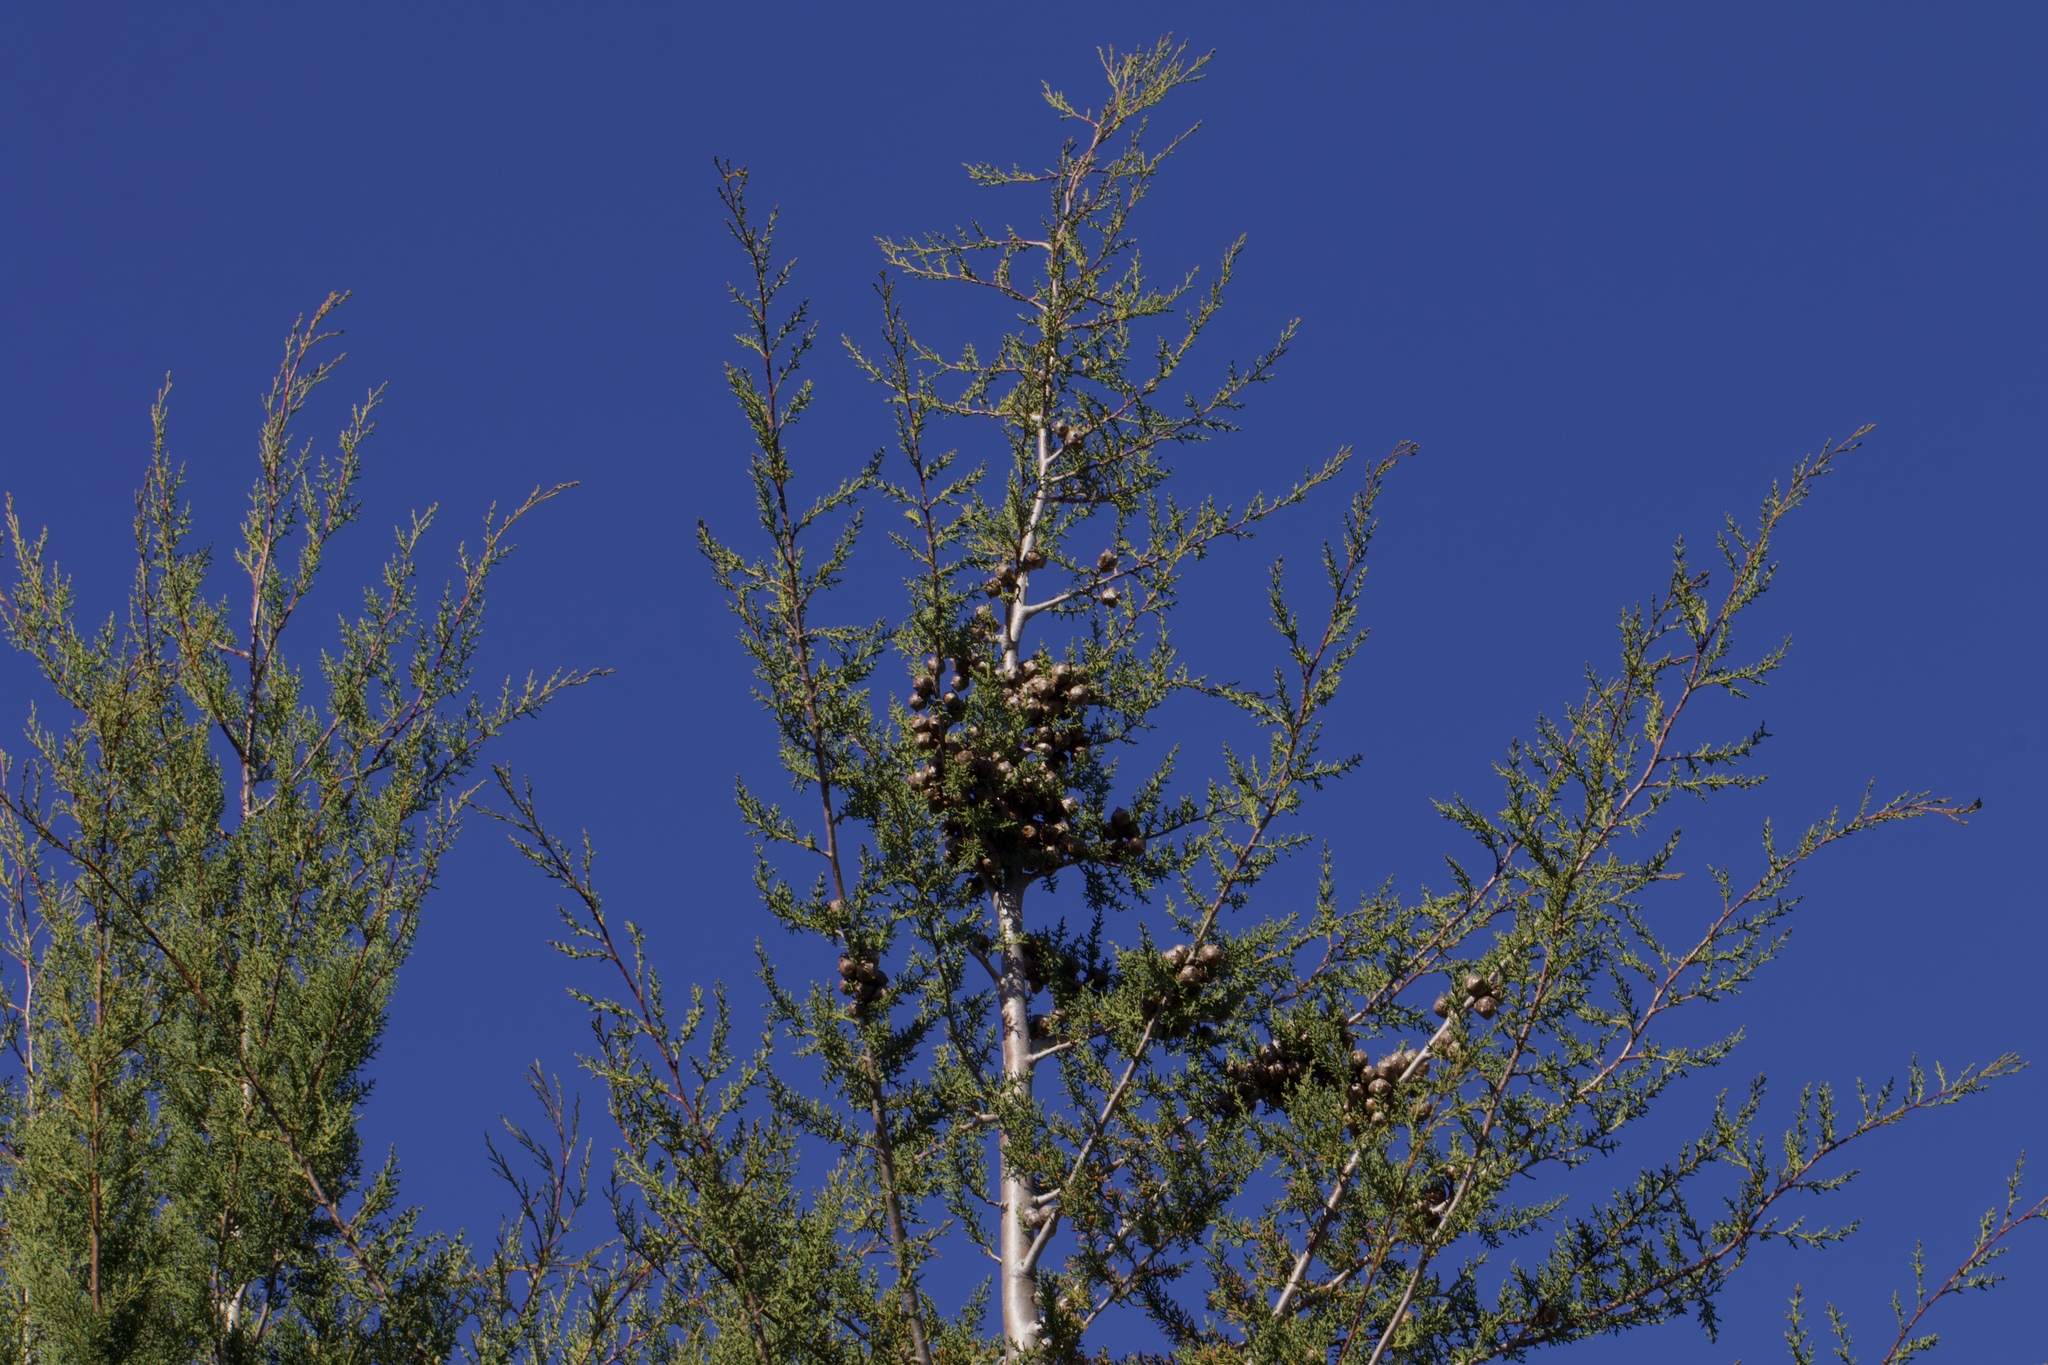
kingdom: Plantae
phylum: Tracheophyta
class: Pinopsida
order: Pinales
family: Cupressaceae
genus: Cupressus
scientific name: Cupressus goveniana
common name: Gowen cypress
